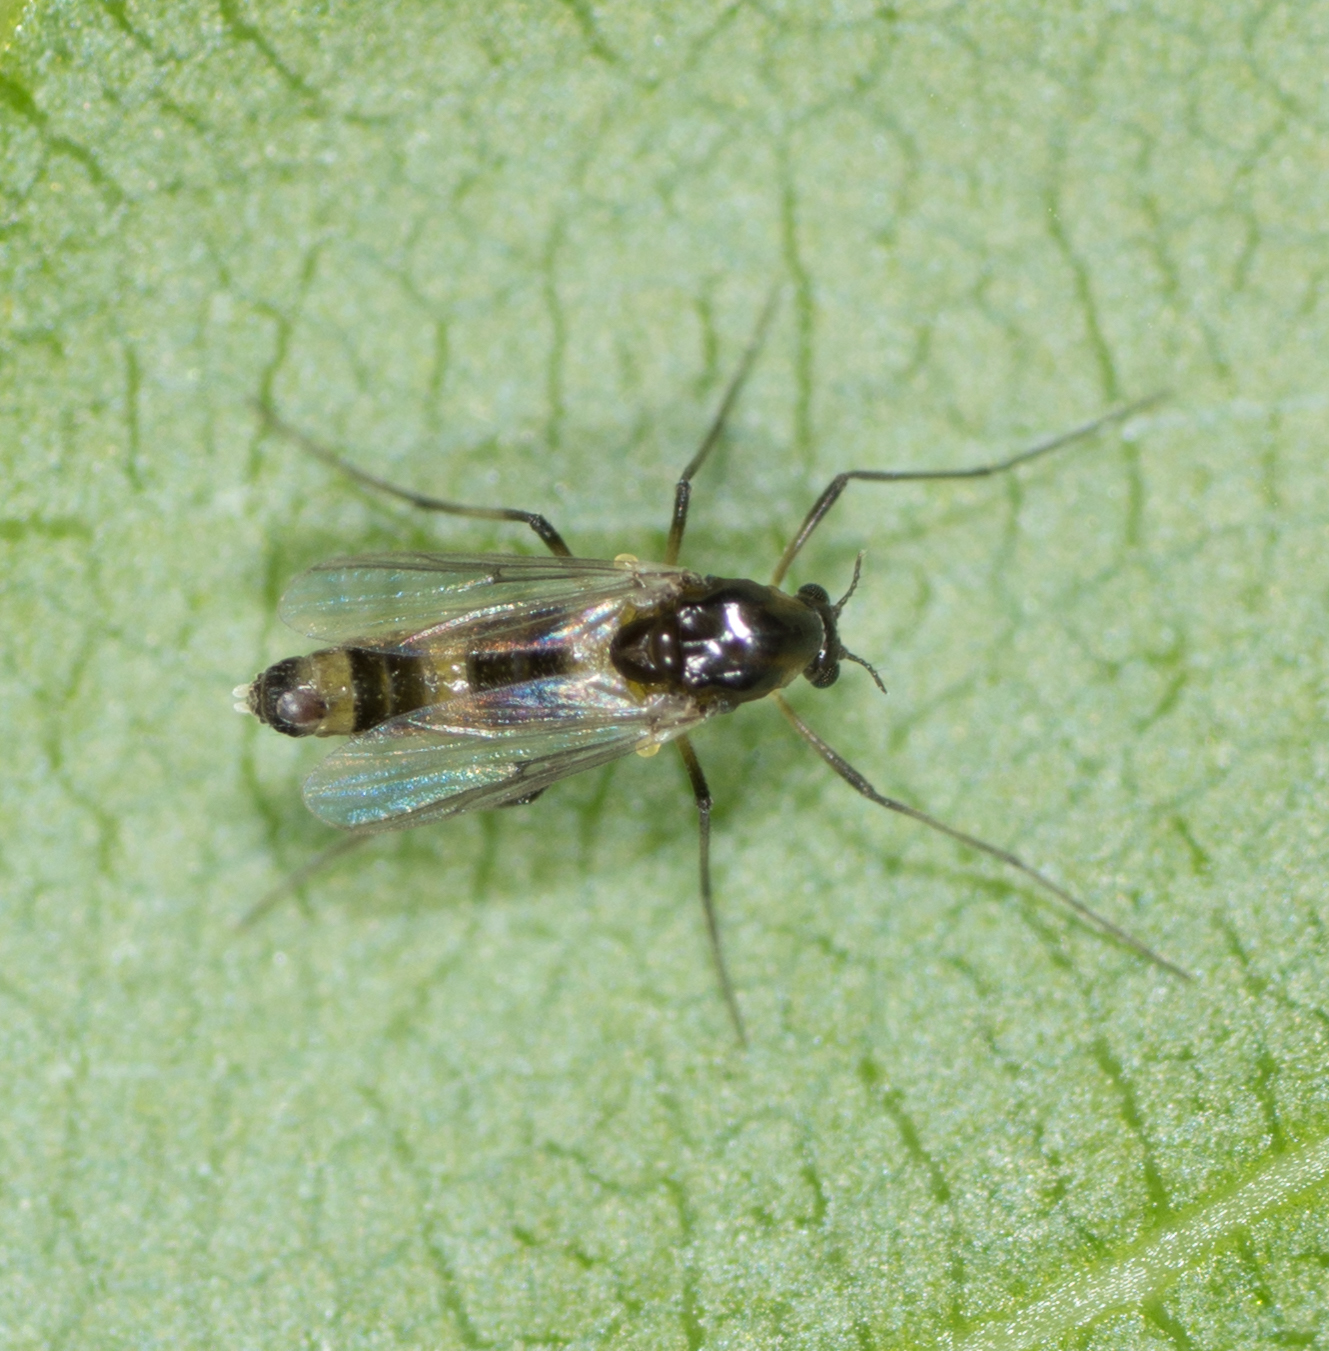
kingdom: Animalia
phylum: Arthropoda
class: Insecta
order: Diptera
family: Chironomidae
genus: Cricotopus
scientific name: Cricotopus
